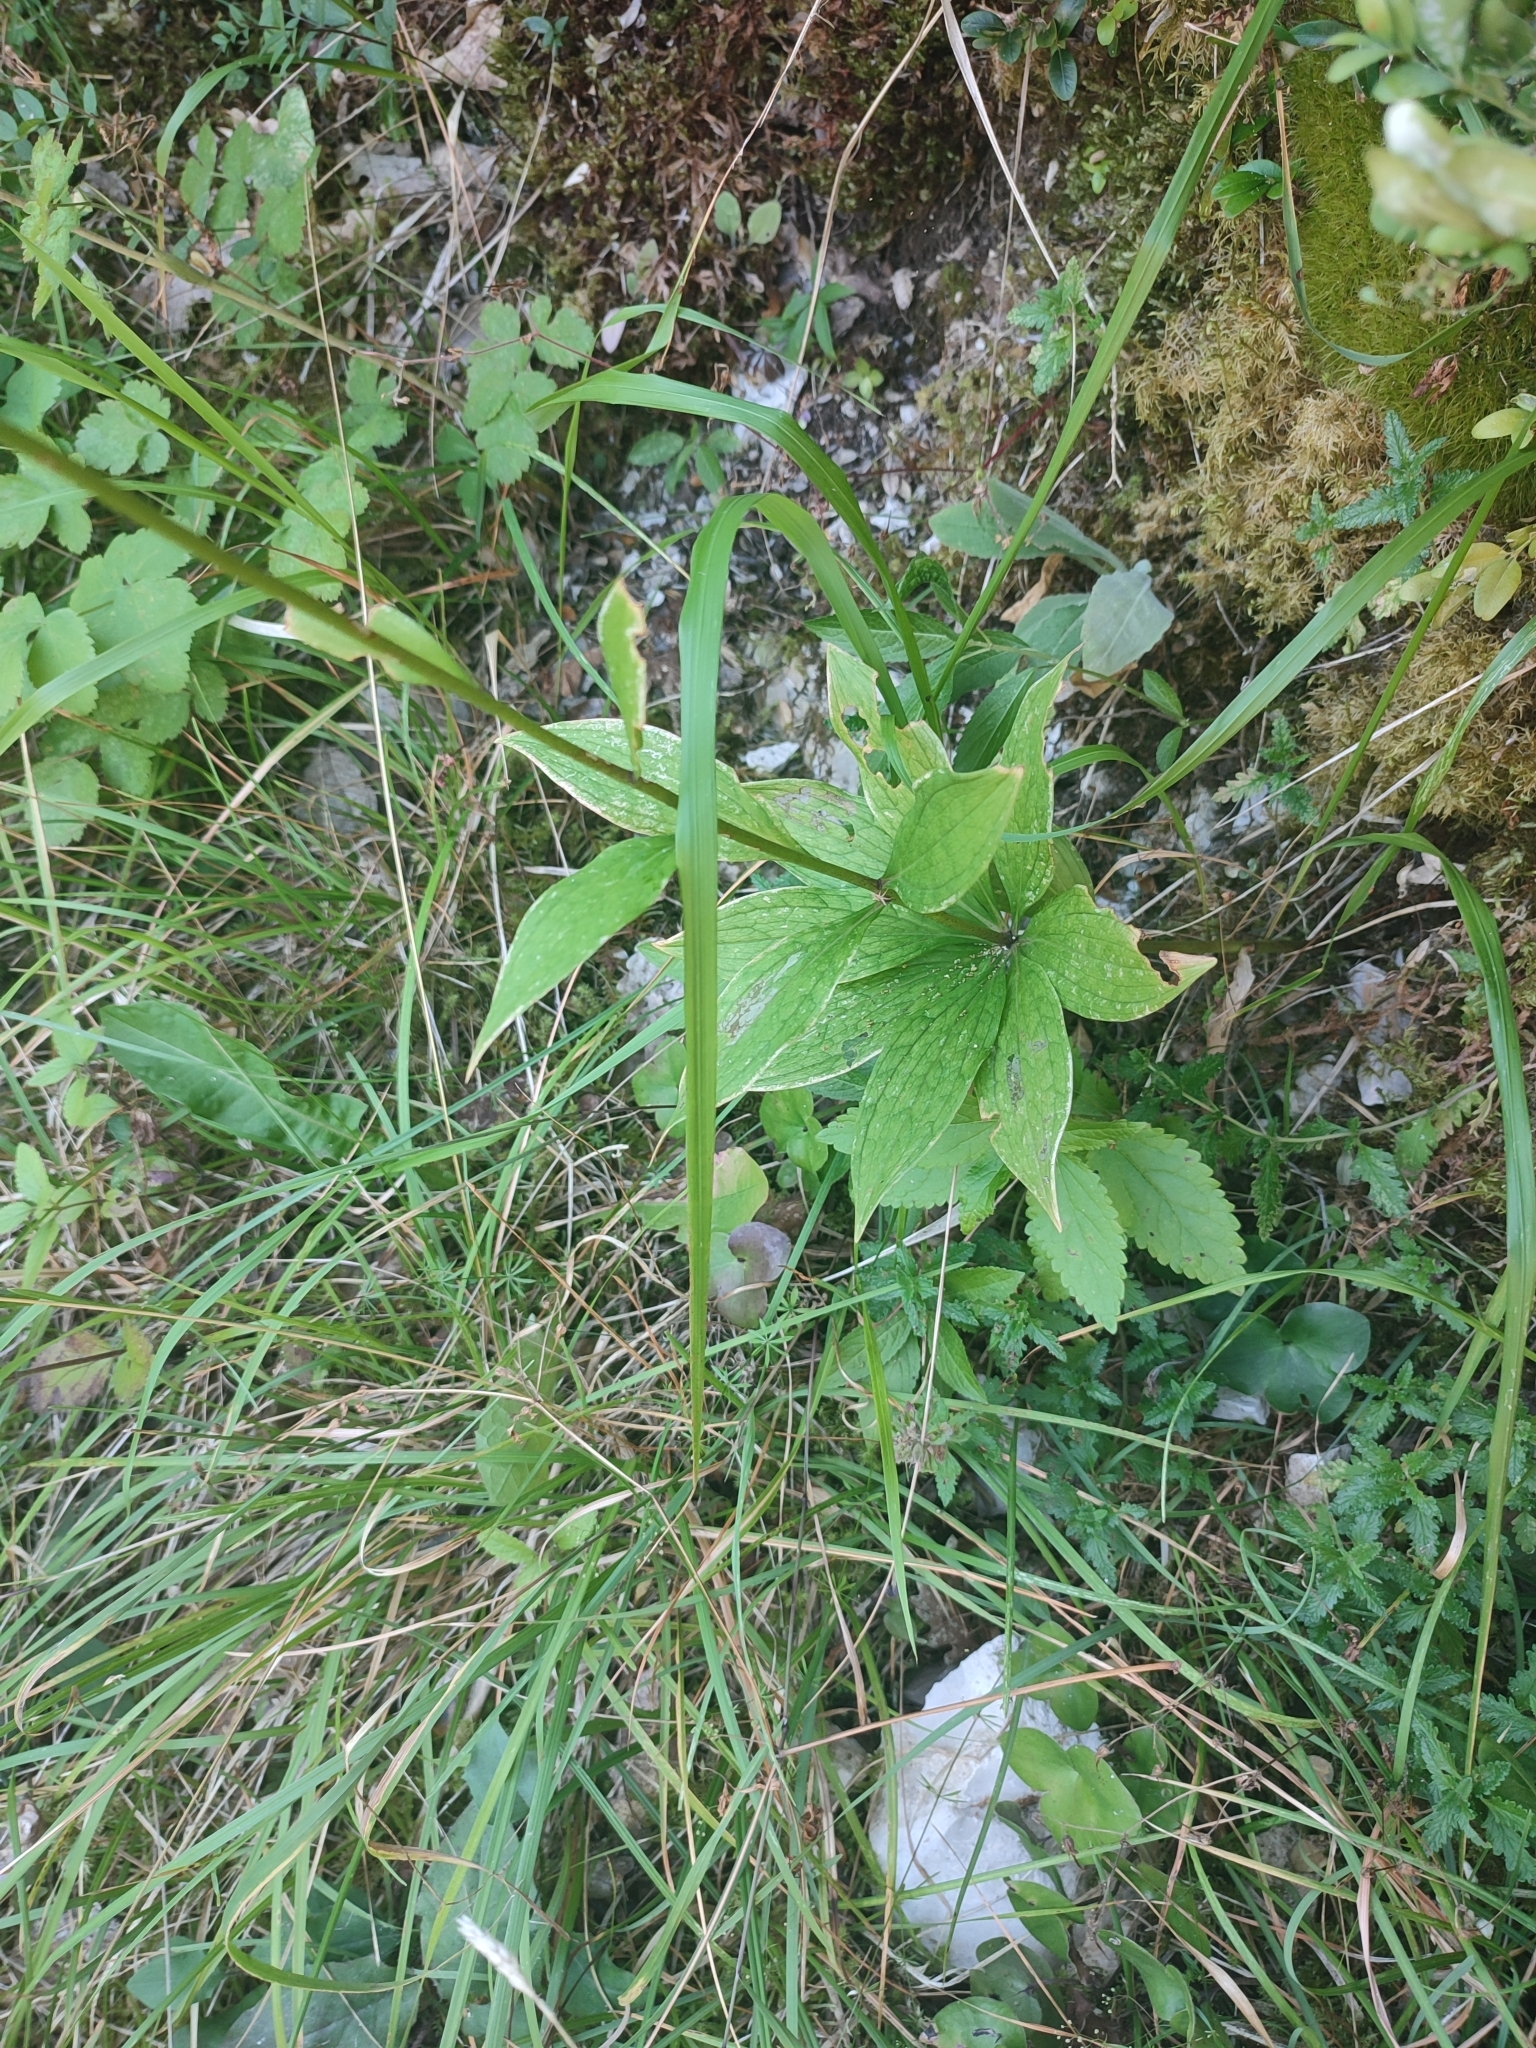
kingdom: Plantae
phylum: Tracheophyta
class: Liliopsida
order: Liliales
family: Liliaceae
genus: Lilium
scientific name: Lilium martagon
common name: Martagon lily
